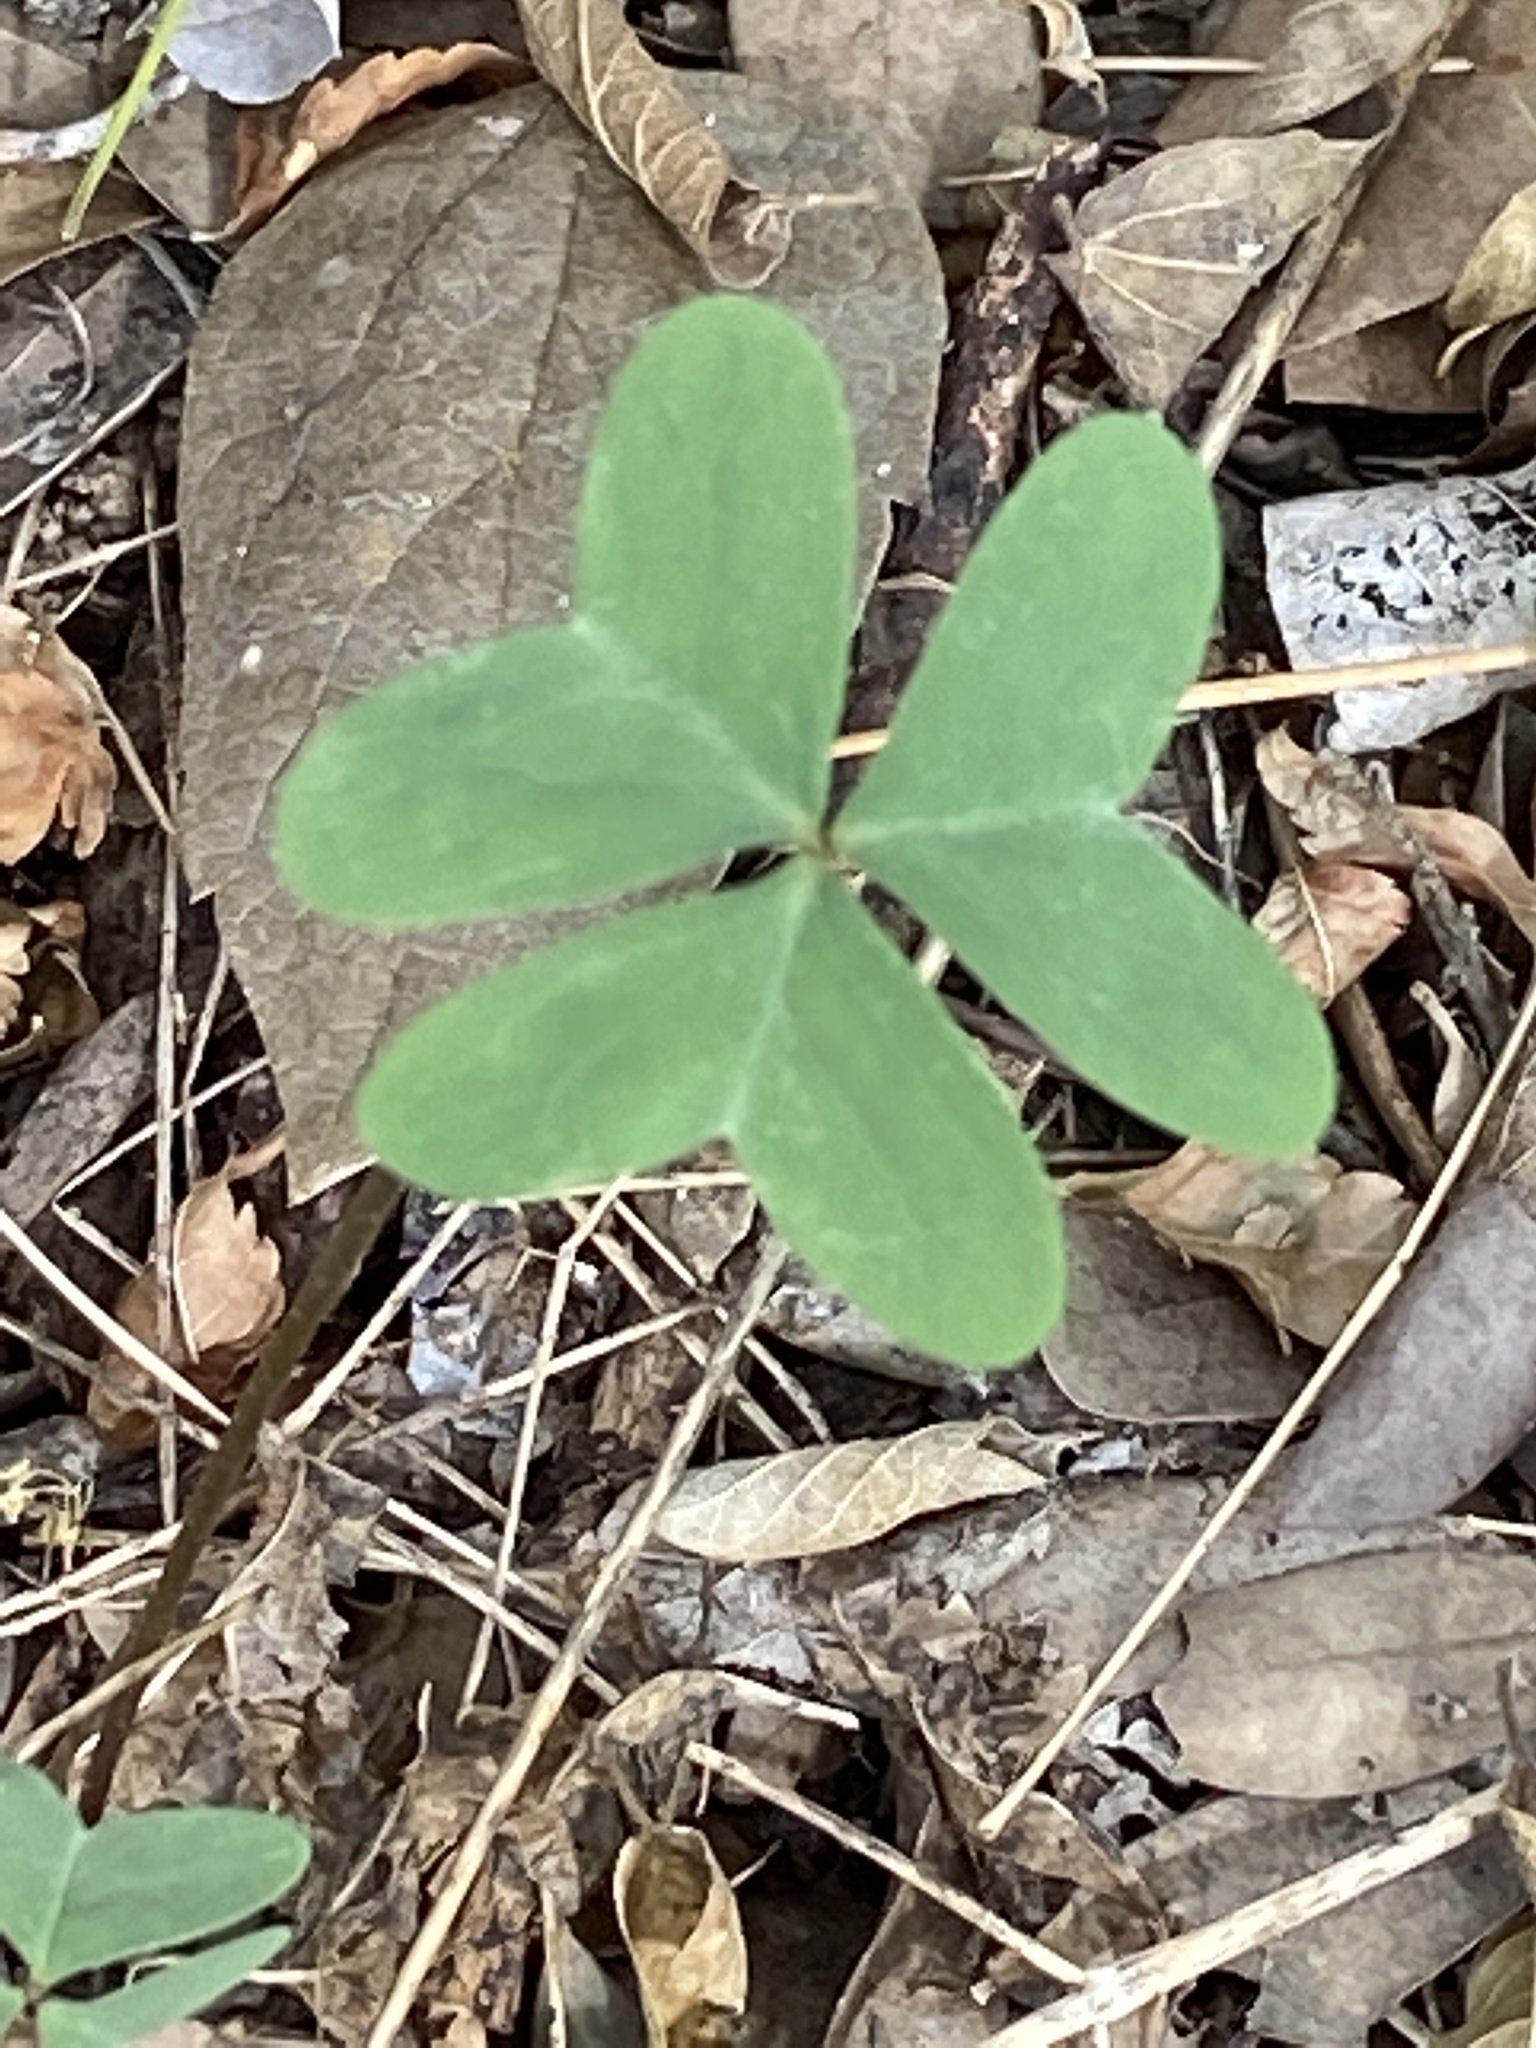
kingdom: Plantae
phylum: Tracheophyta
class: Magnoliopsida
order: Oxalidales
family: Oxalidaceae
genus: Oxalis
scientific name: Oxalis drummondii
